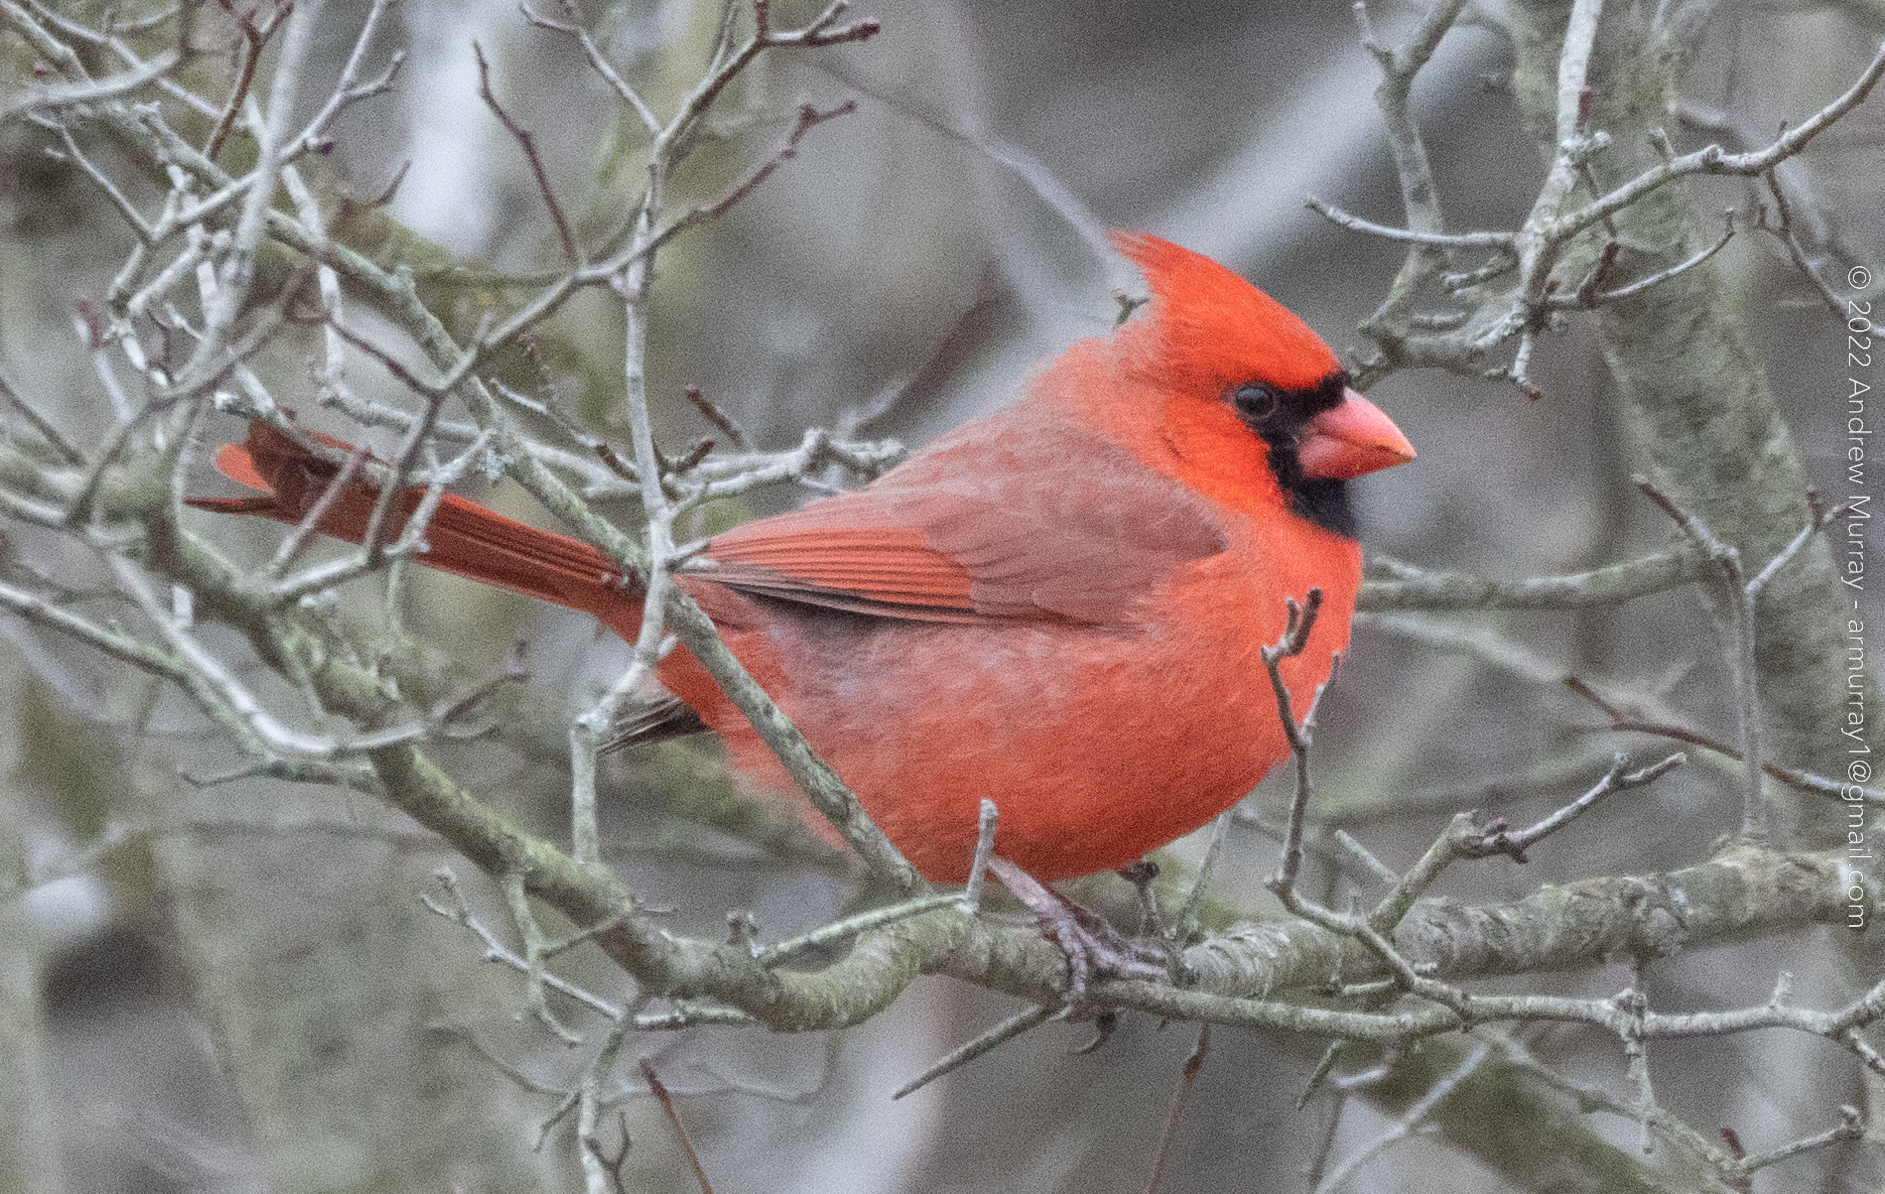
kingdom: Animalia
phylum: Chordata
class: Aves
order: Passeriformes
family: Cardinalidae
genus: Cardinalis
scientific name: Cardinalis cardinalis
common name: Northern cardinal
